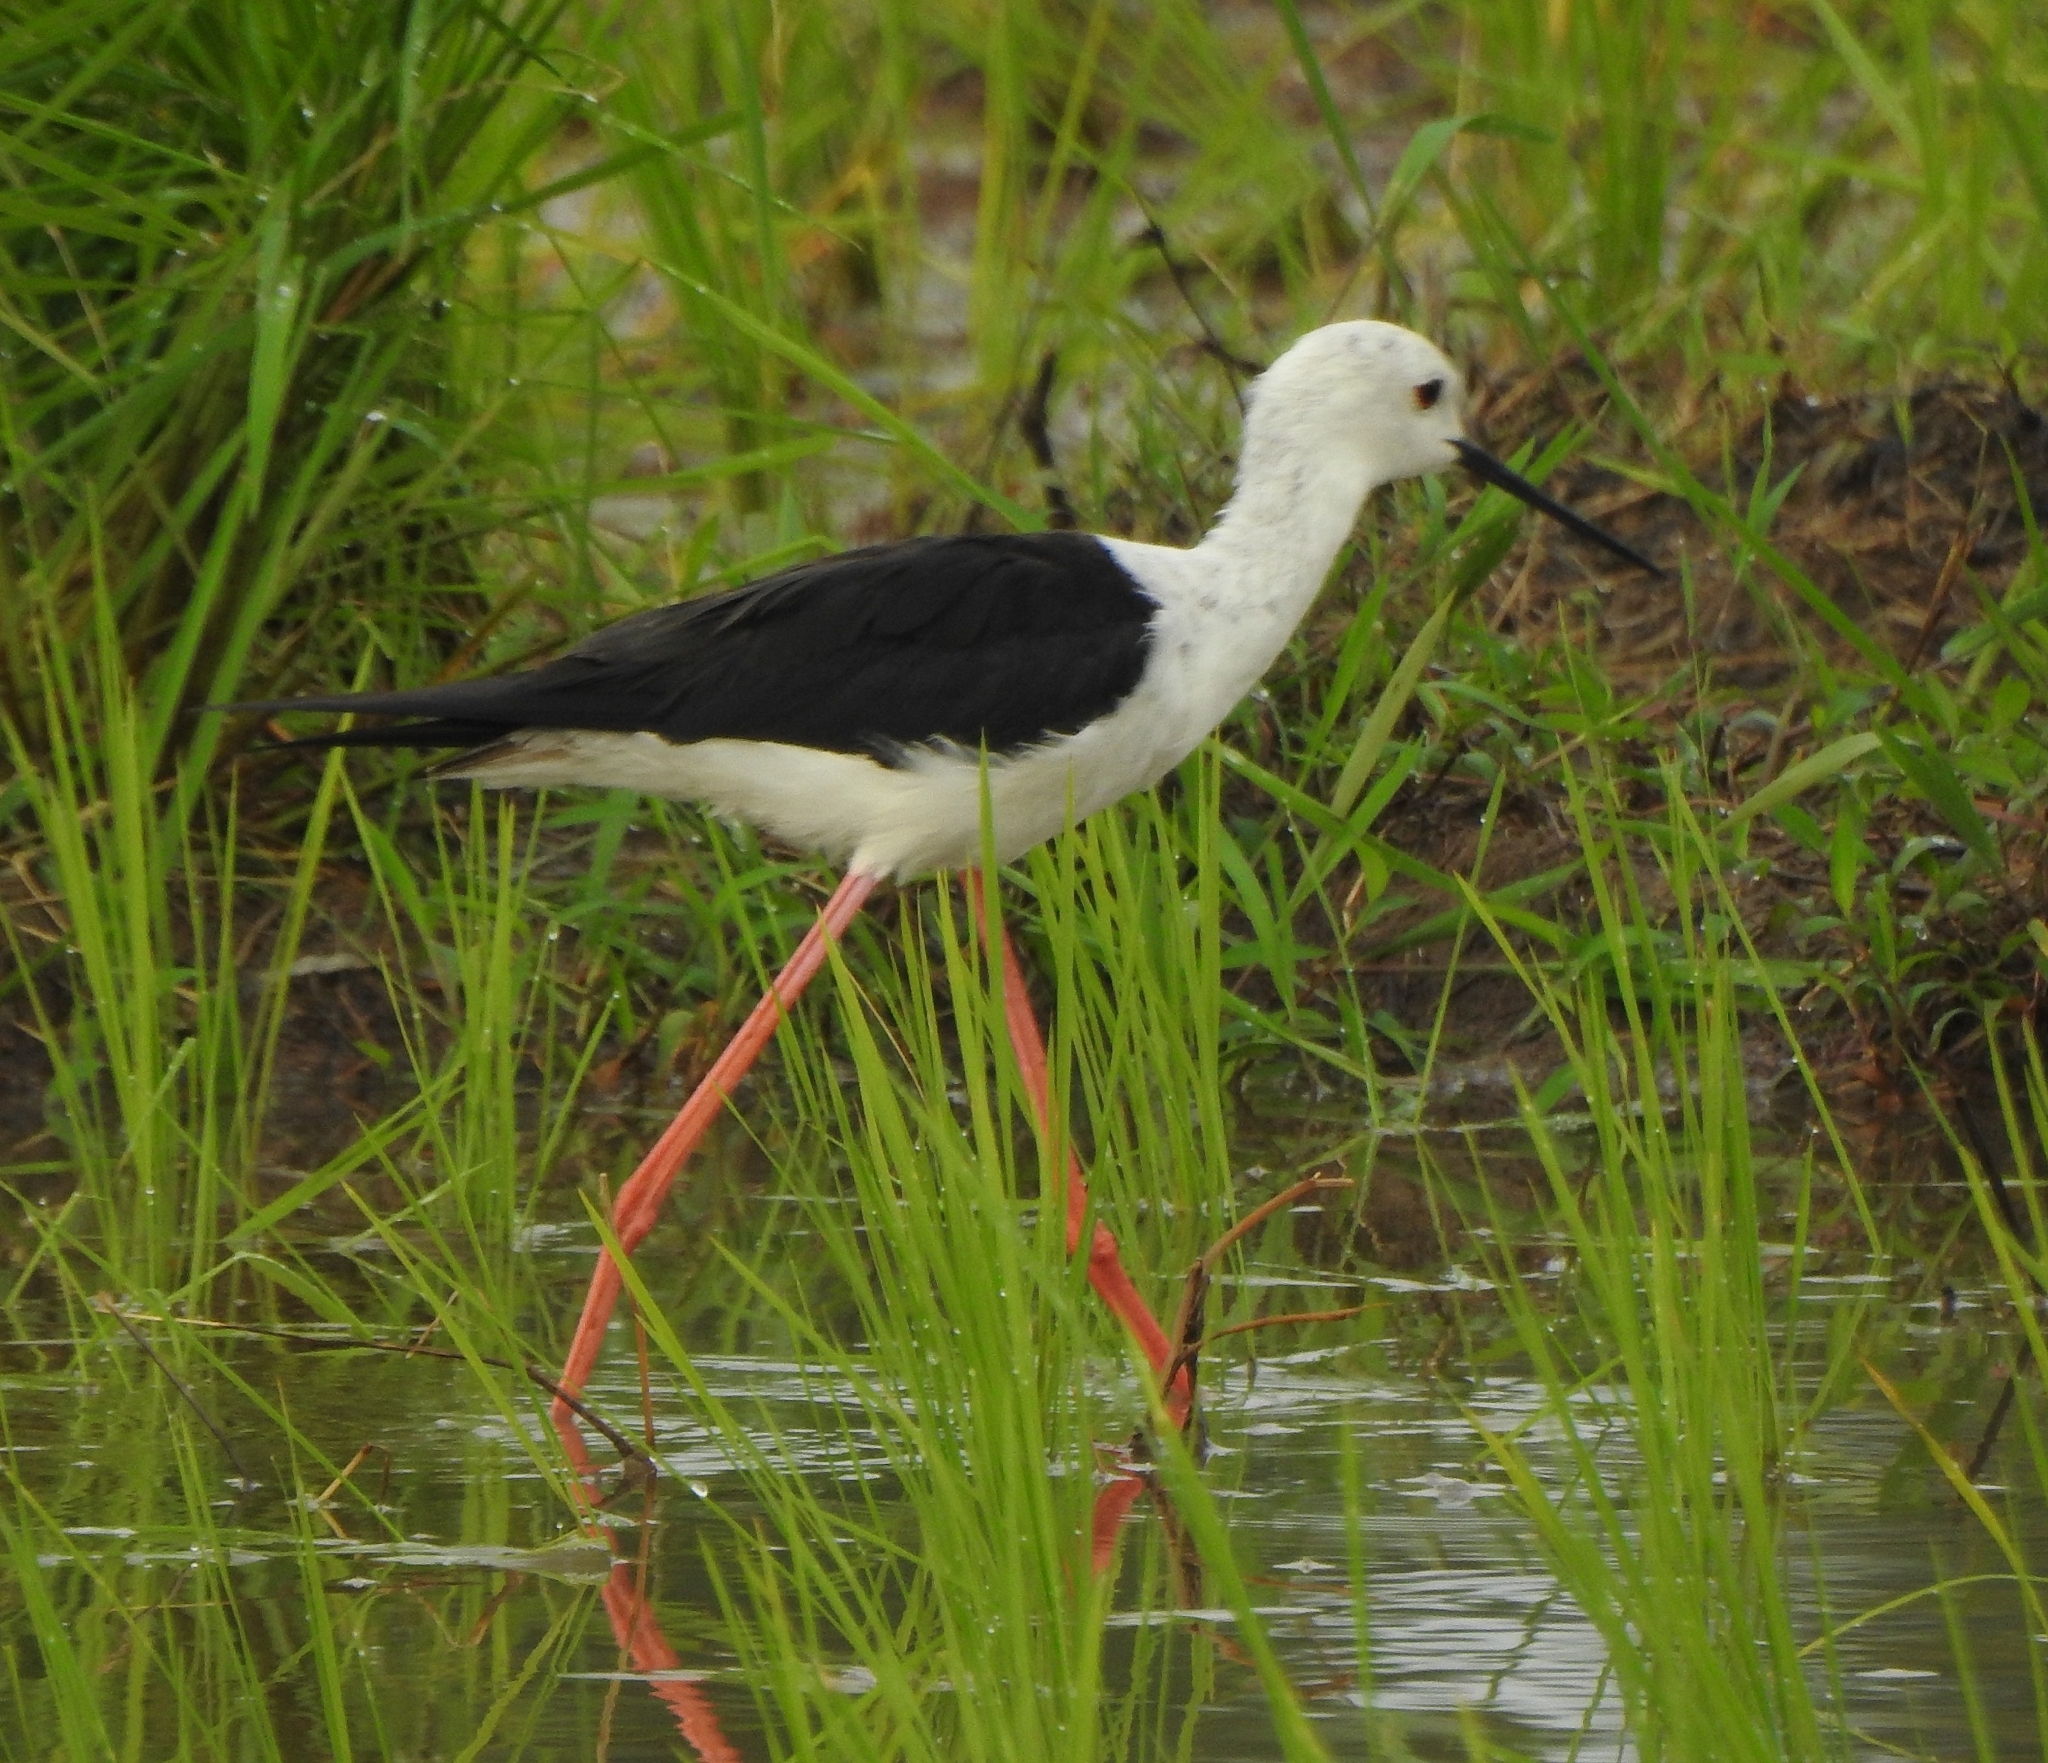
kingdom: Animalia
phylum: Chordata
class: Aves
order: Charadriiformes
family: Recurvirostridae
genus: Himantopus
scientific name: Himantopus himantopus
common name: Black-winged stilt
